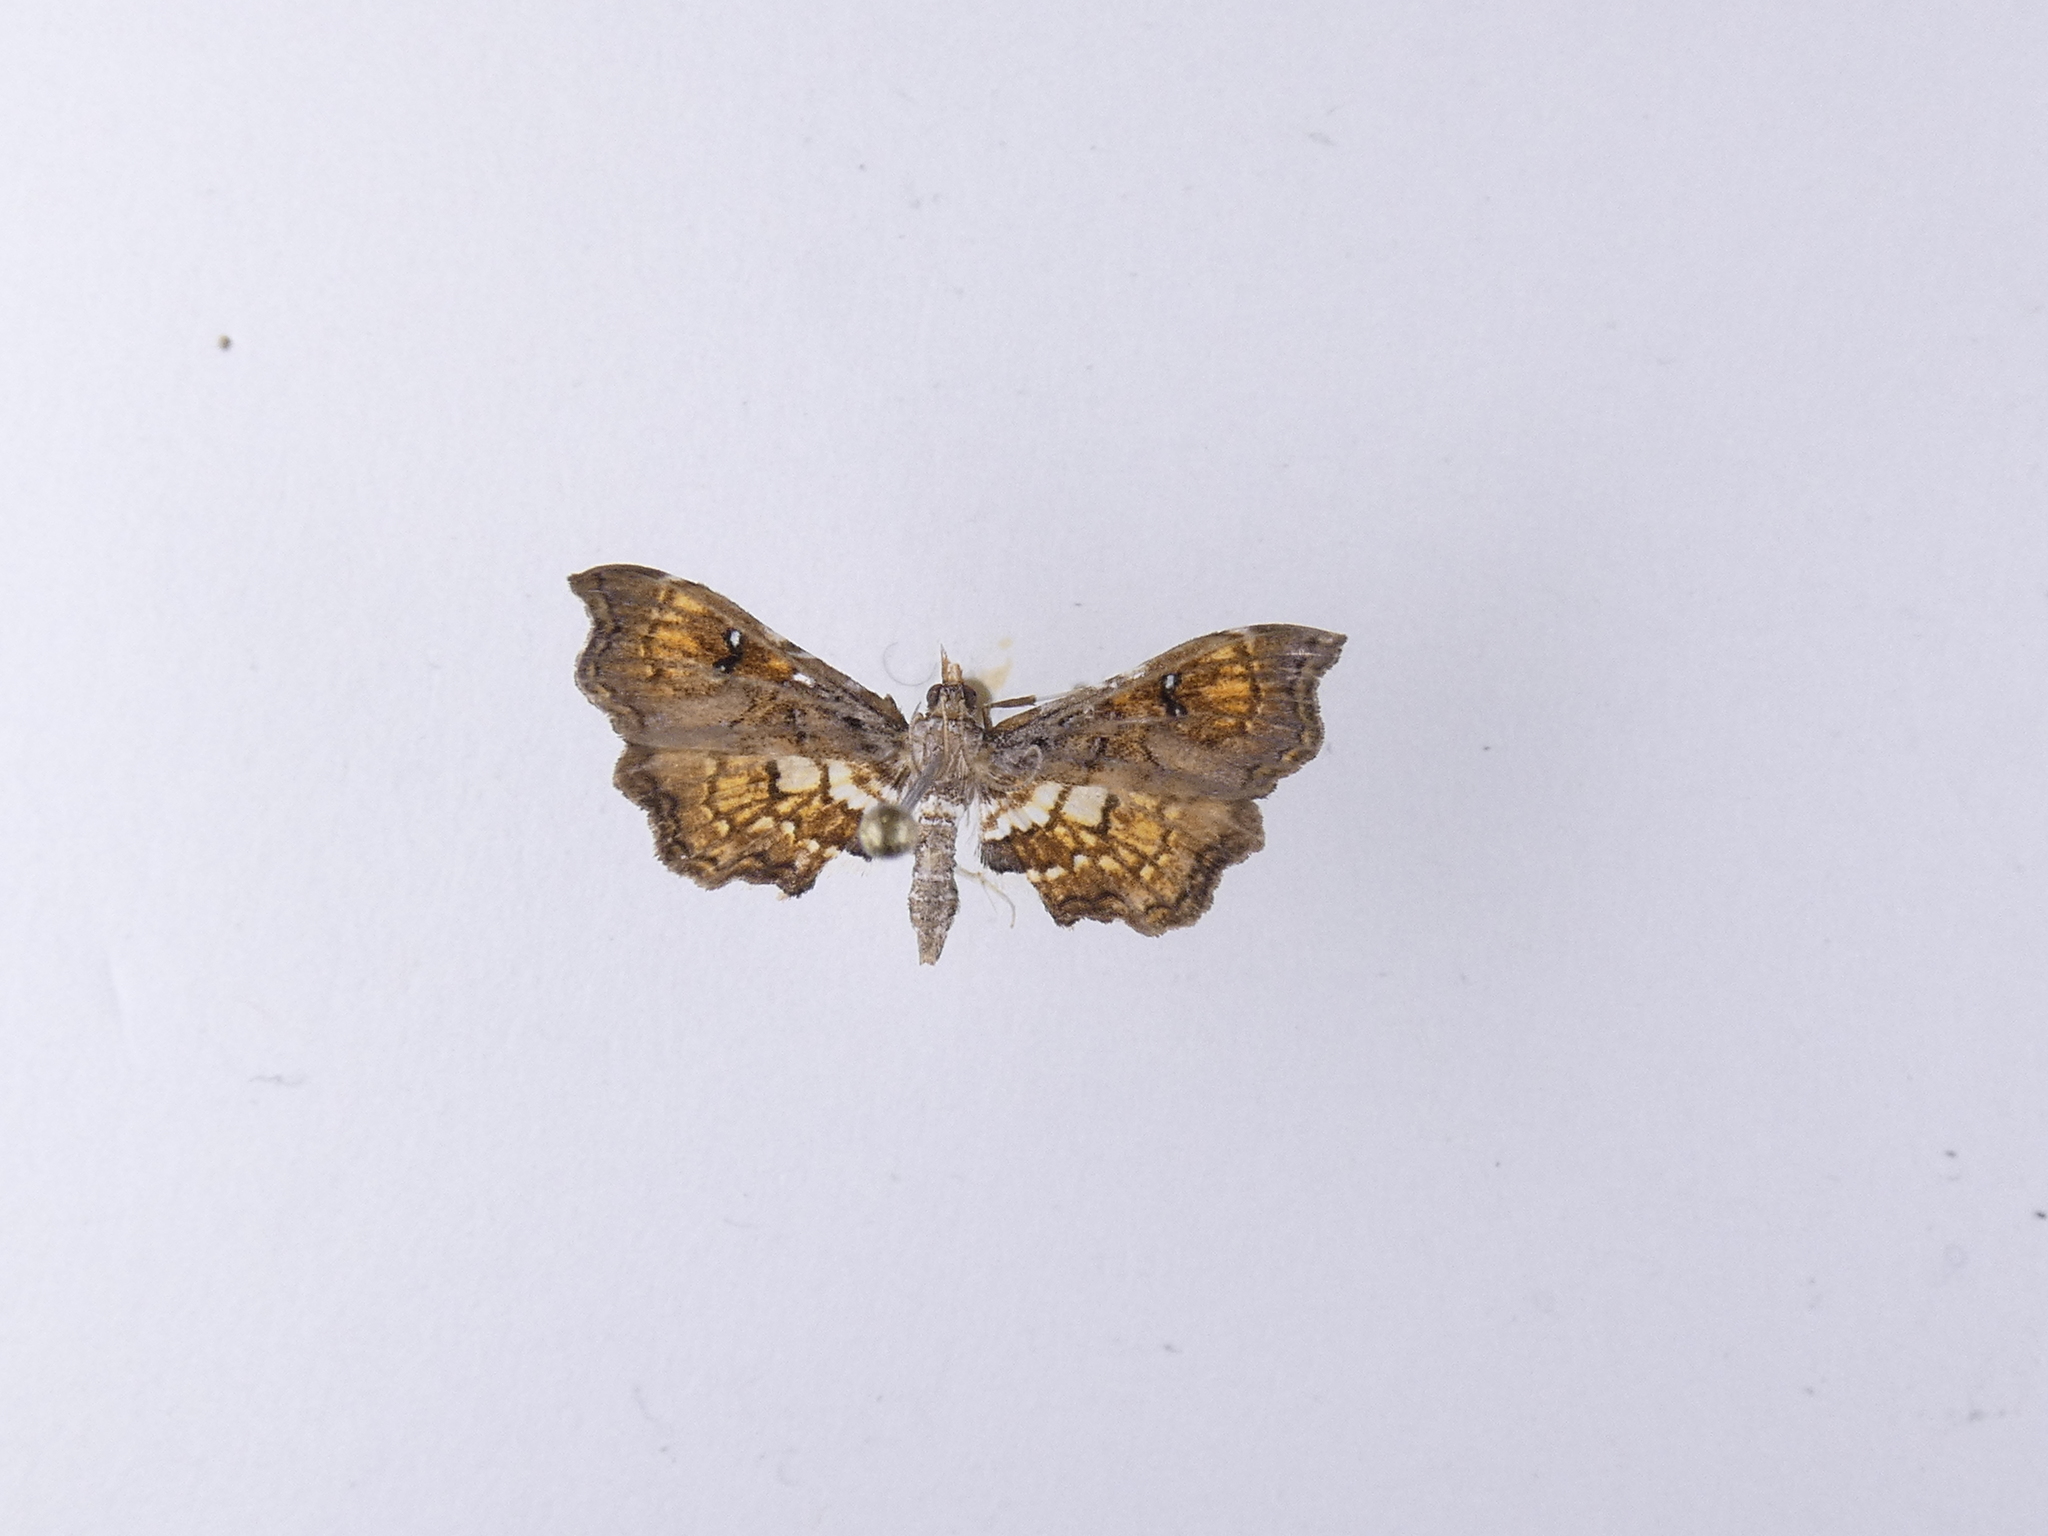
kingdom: Animalia
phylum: Arthropoda
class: Insecta
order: Lepidoptera
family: Pyralidae
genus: Musotima
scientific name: Musotima aduncalis
